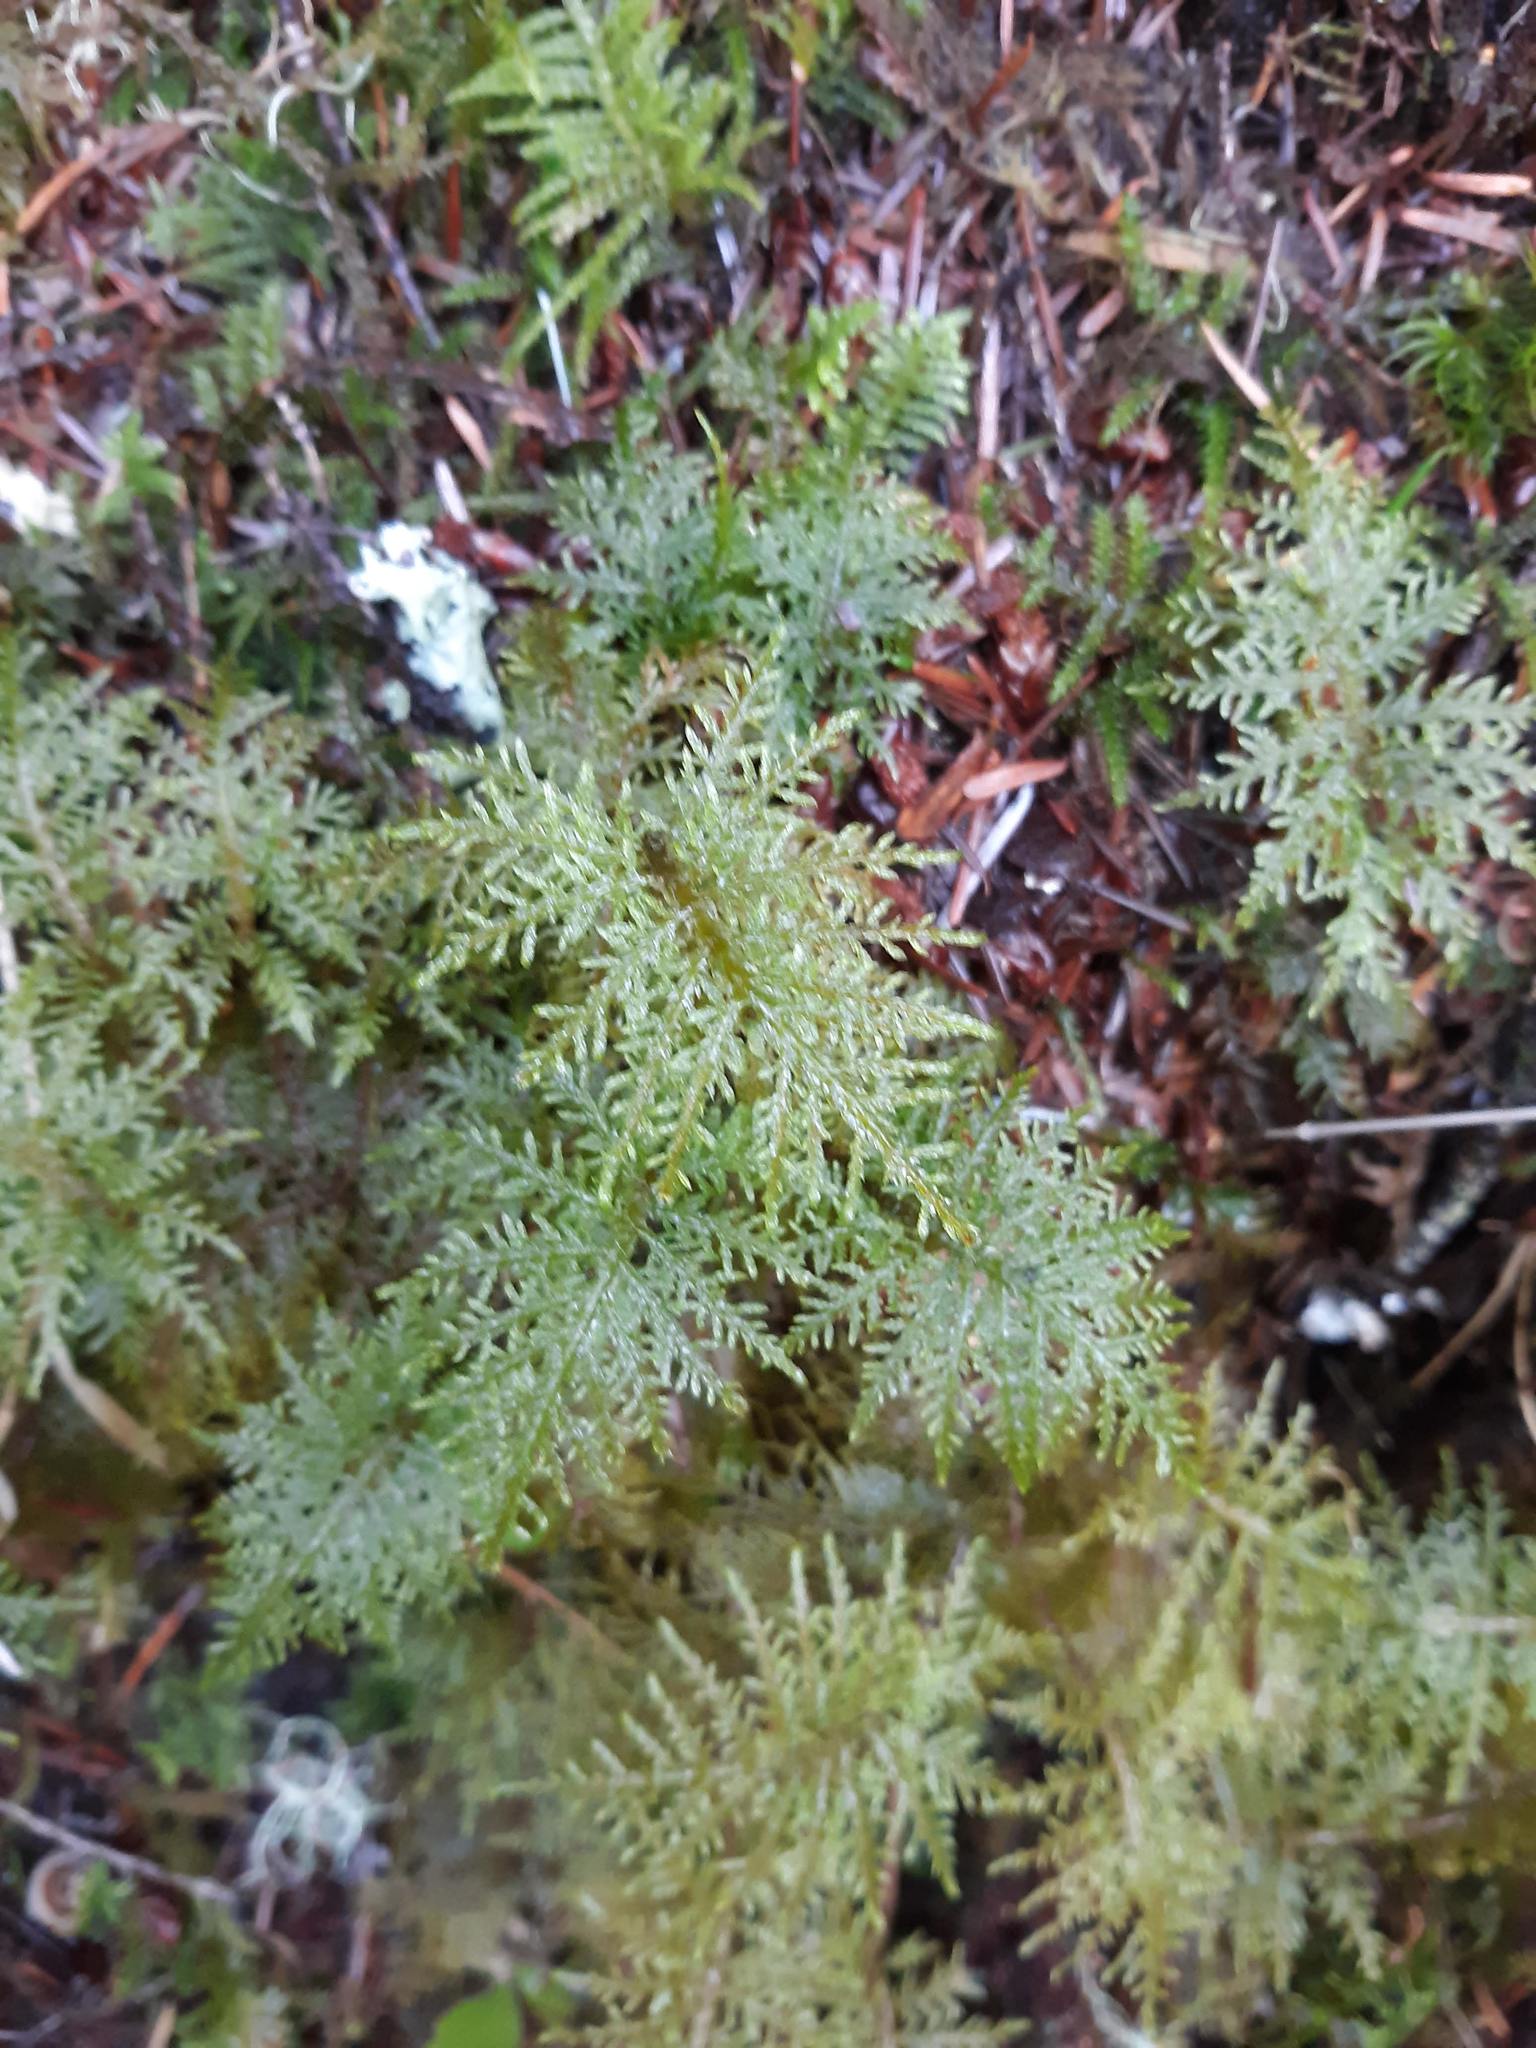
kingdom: Plantae
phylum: Bryophyta
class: Bryopsida
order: Hypnales
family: Hylocomiaceae
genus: Hylocomium
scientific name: Hylocomium splendens
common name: Stairstep moss
